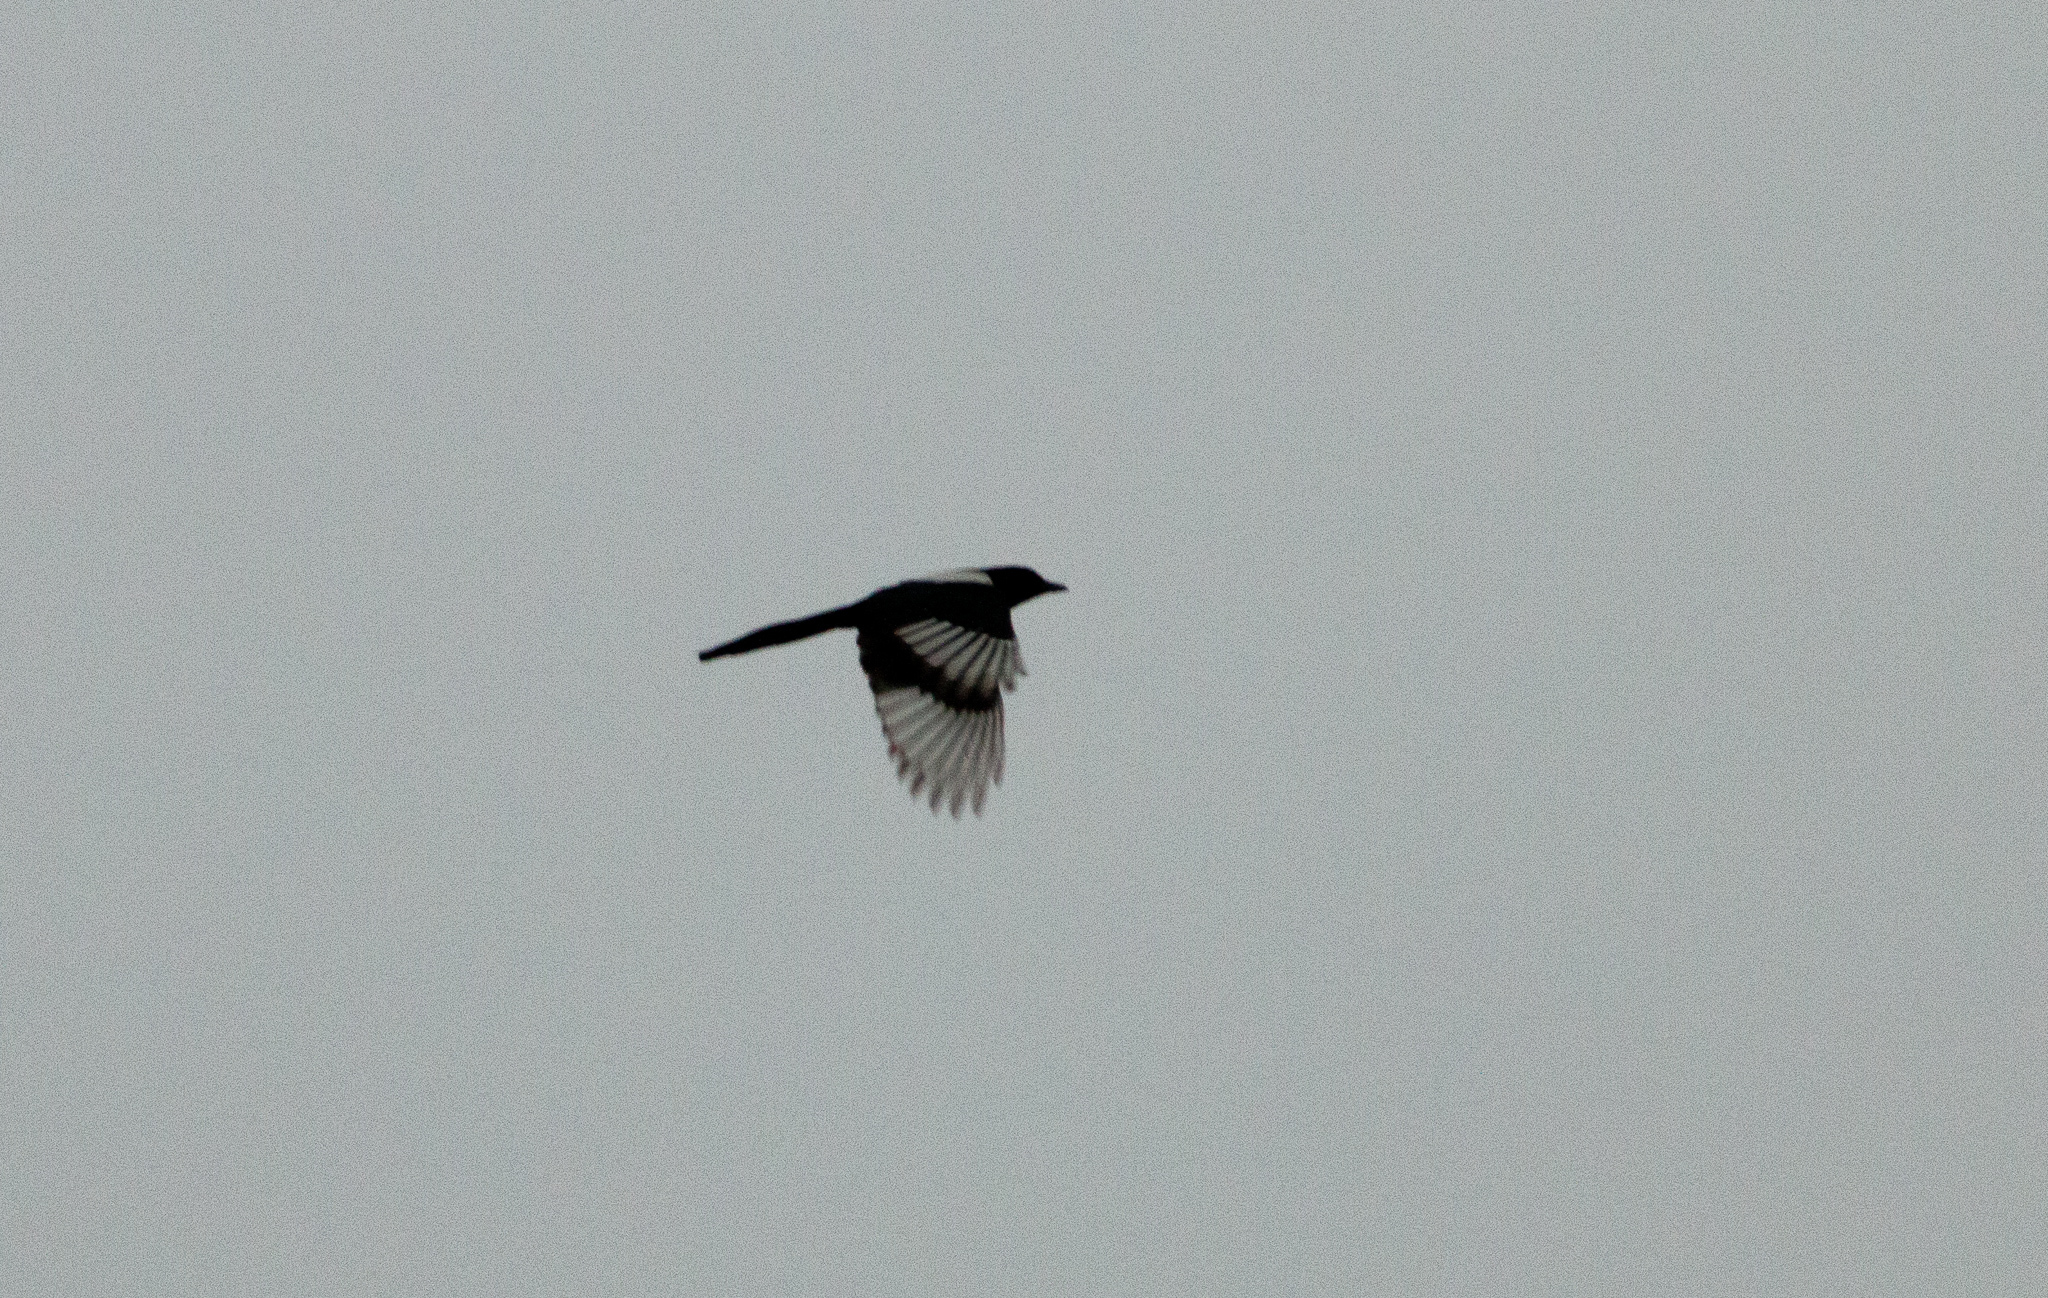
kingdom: Animalia
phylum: Chordata
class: Aves
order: Passeriformes
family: Corvidae
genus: Pica
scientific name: Pica pica
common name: Eurasian magpie
